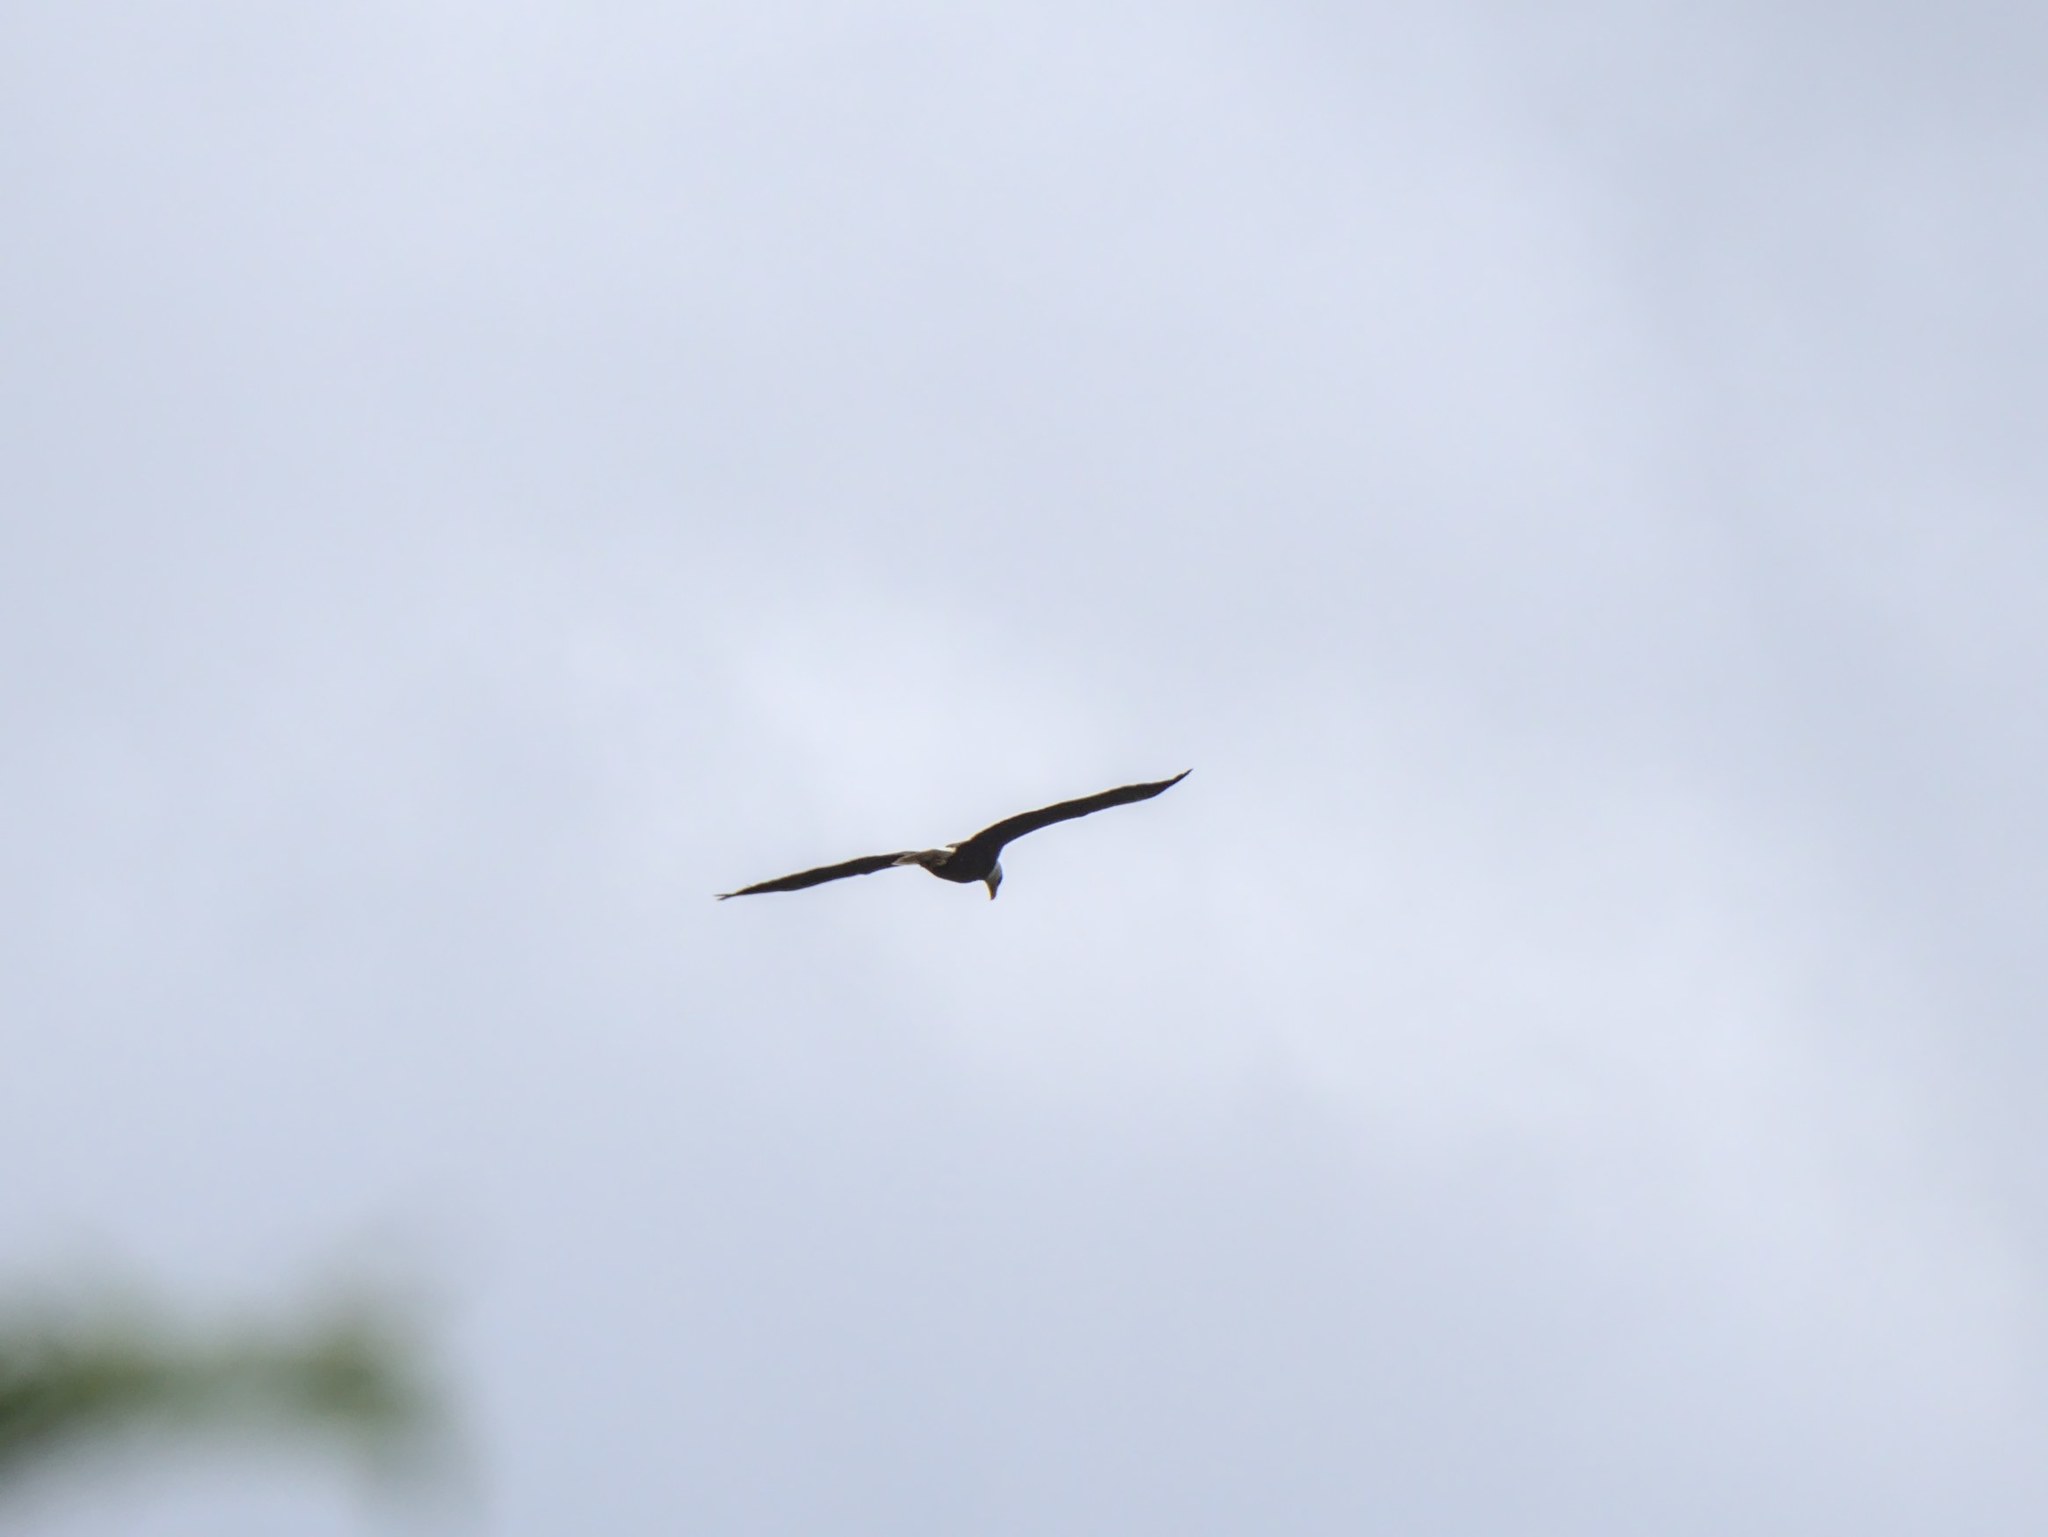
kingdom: Animalia
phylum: Chordata
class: Aves
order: Accipitriformes
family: Accipitridae
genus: Haliaeetus
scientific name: Haliaeetus leucocephalus
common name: Bald eagle
